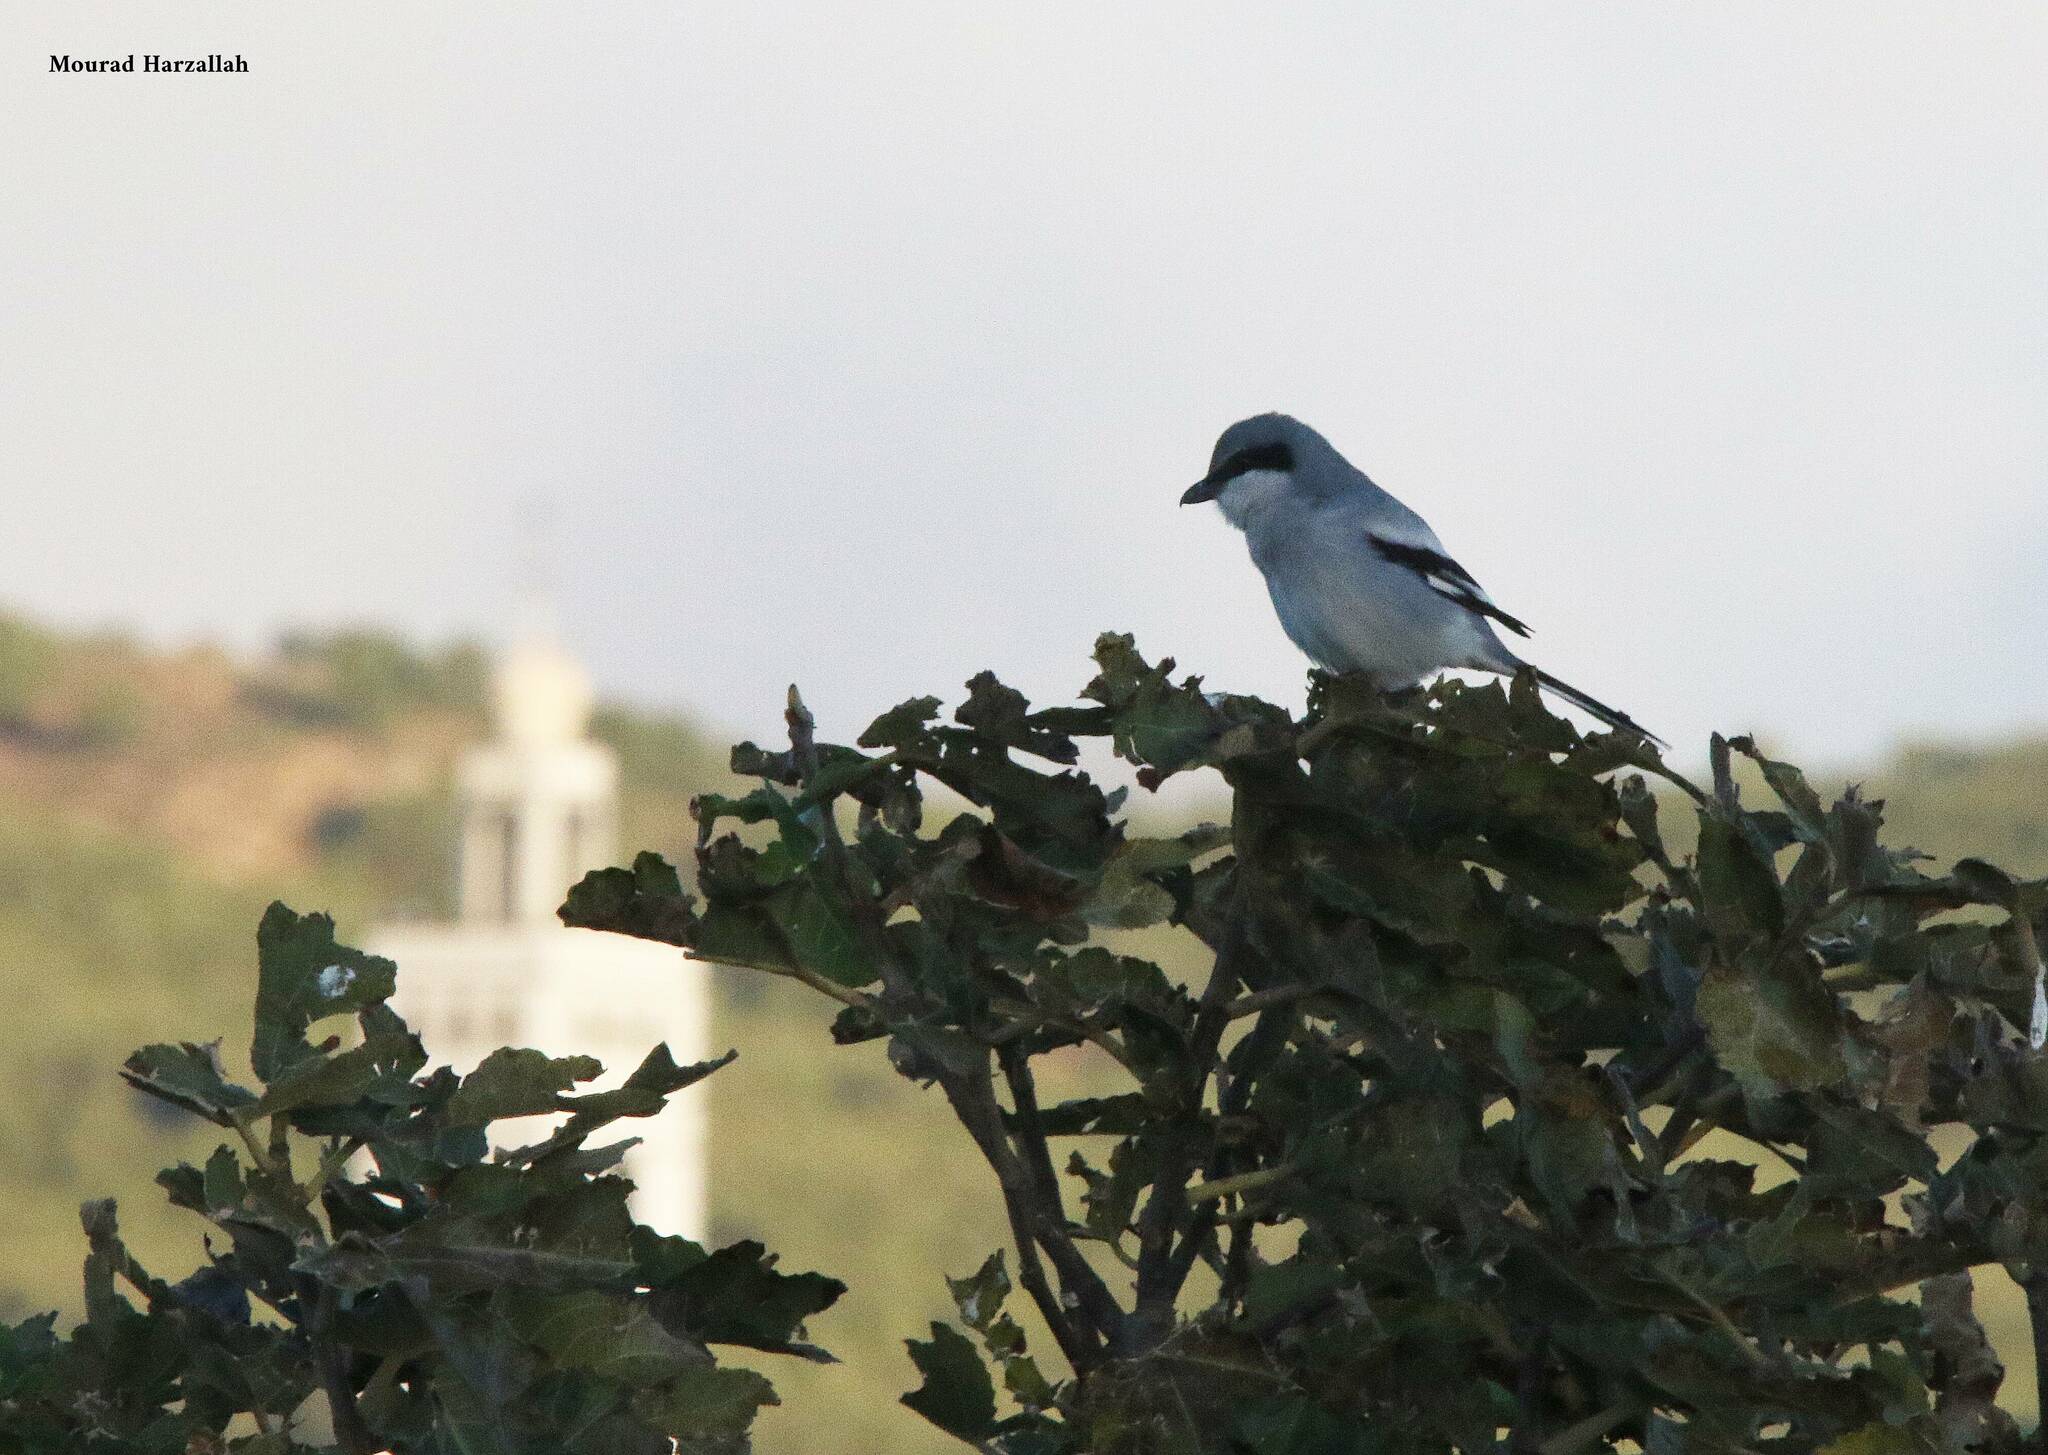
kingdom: Animalia
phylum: Chordata
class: Aves
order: Passeriformes
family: Laniidae
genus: Lanius
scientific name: Lanius excubitor
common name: Great grey shrike
